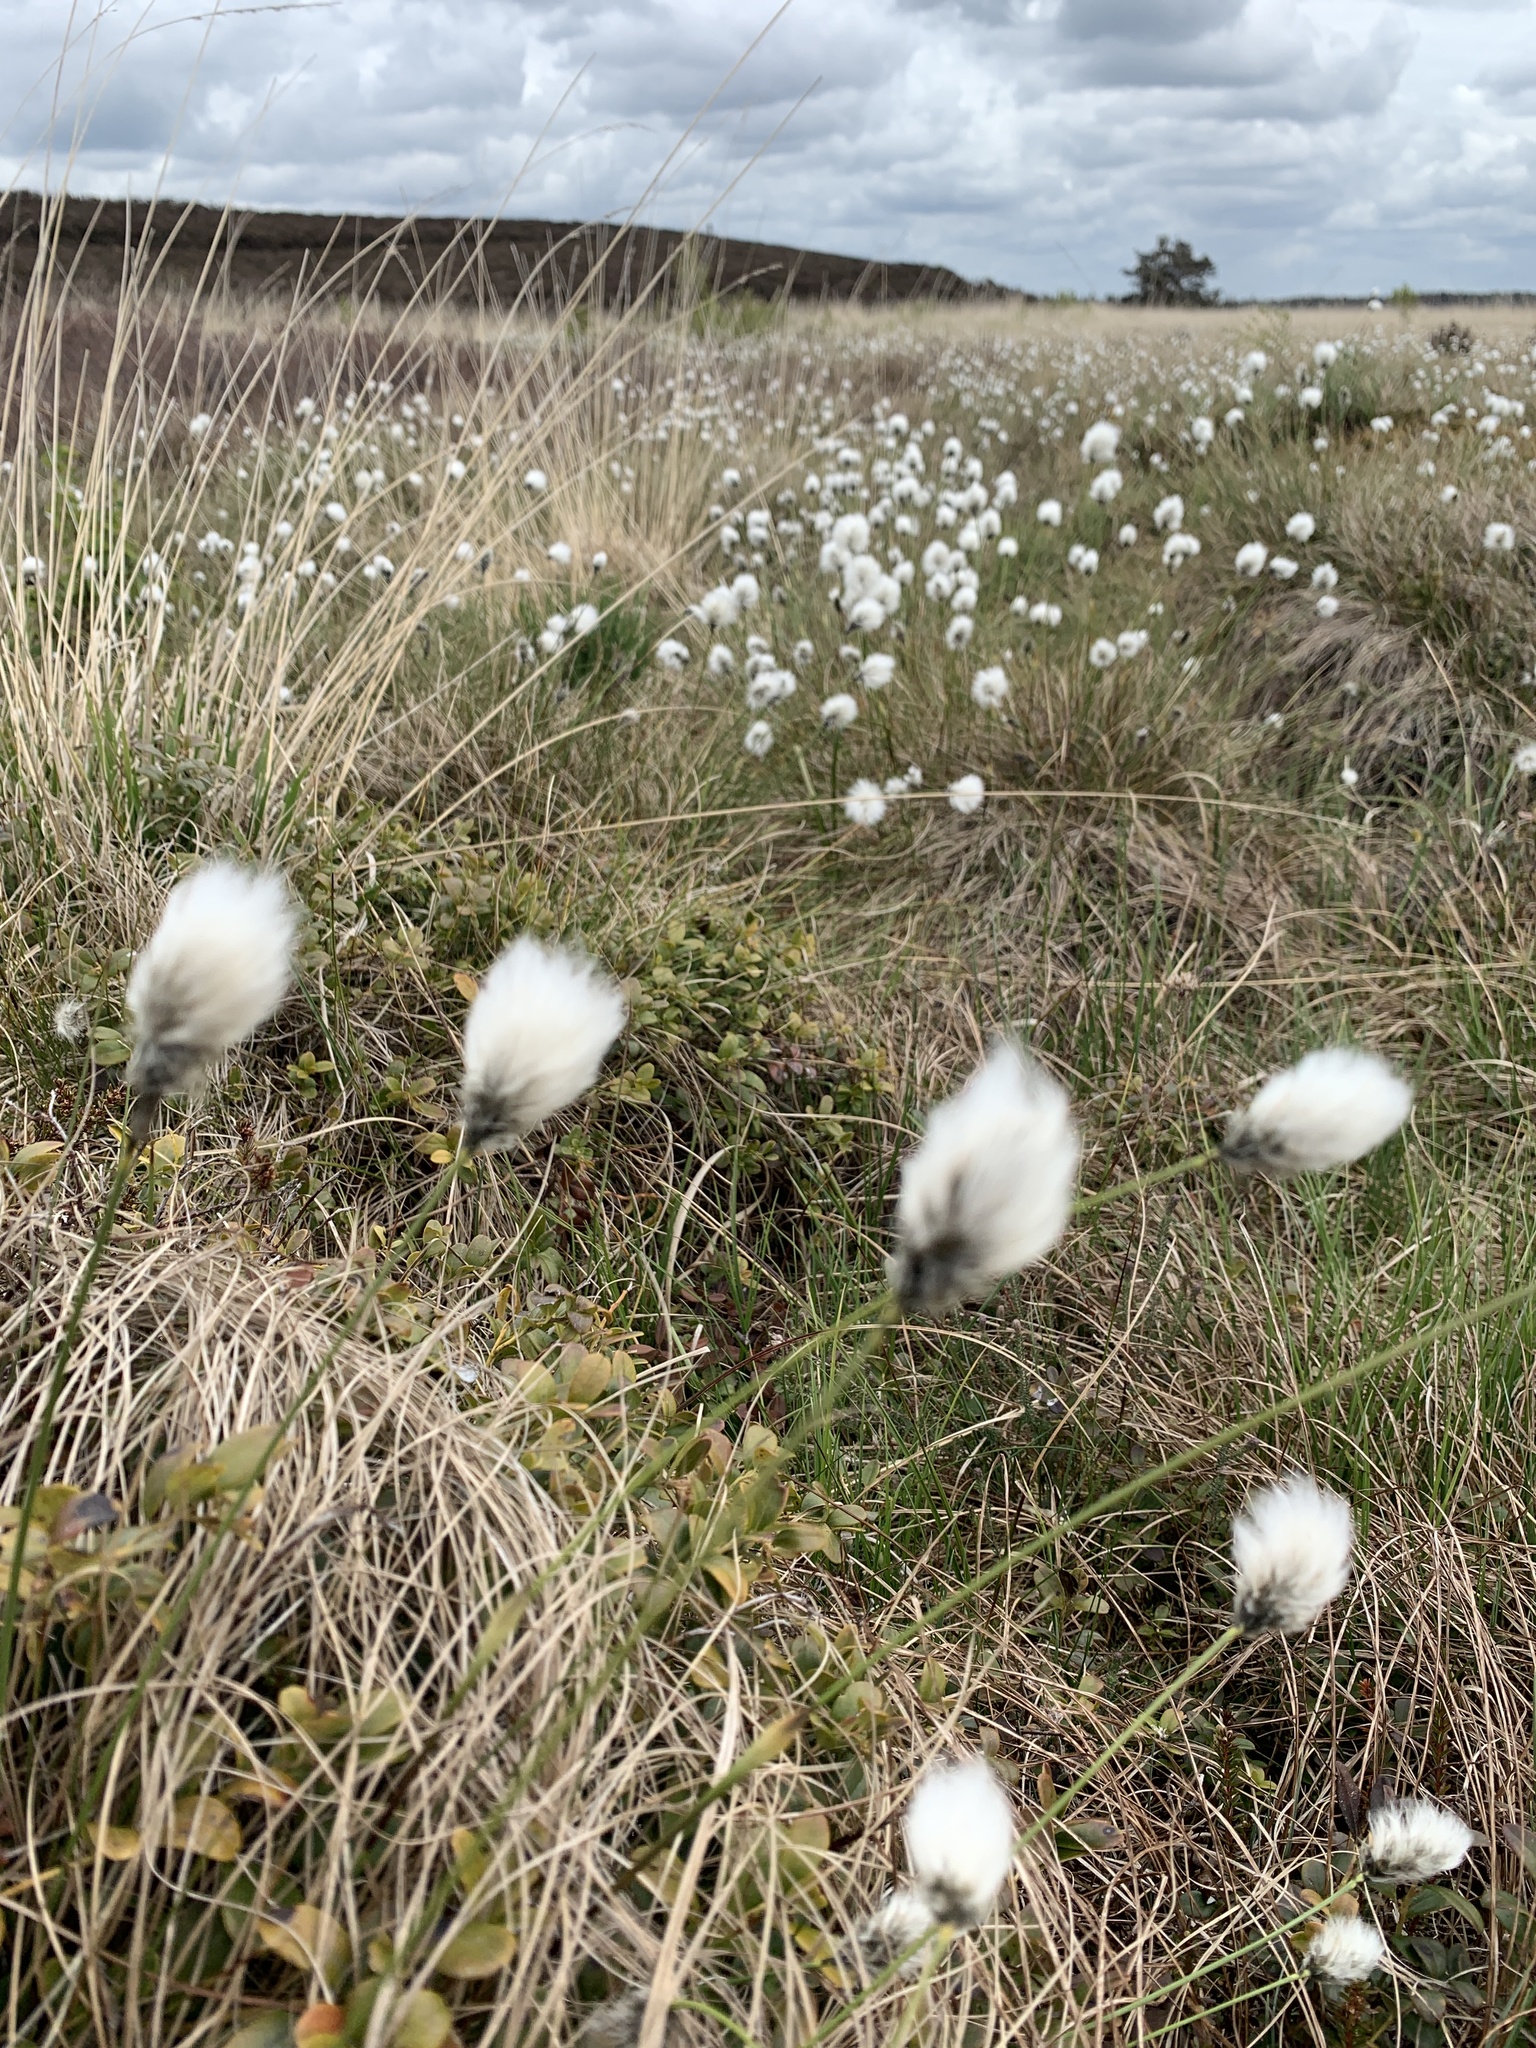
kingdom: Plantae
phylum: Tracheophyta
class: Liliopsida
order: Poales
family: Cyperaceae
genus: Eriophorum
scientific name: Eriophorum vaginatum
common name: Hare's-tail cottongrass
